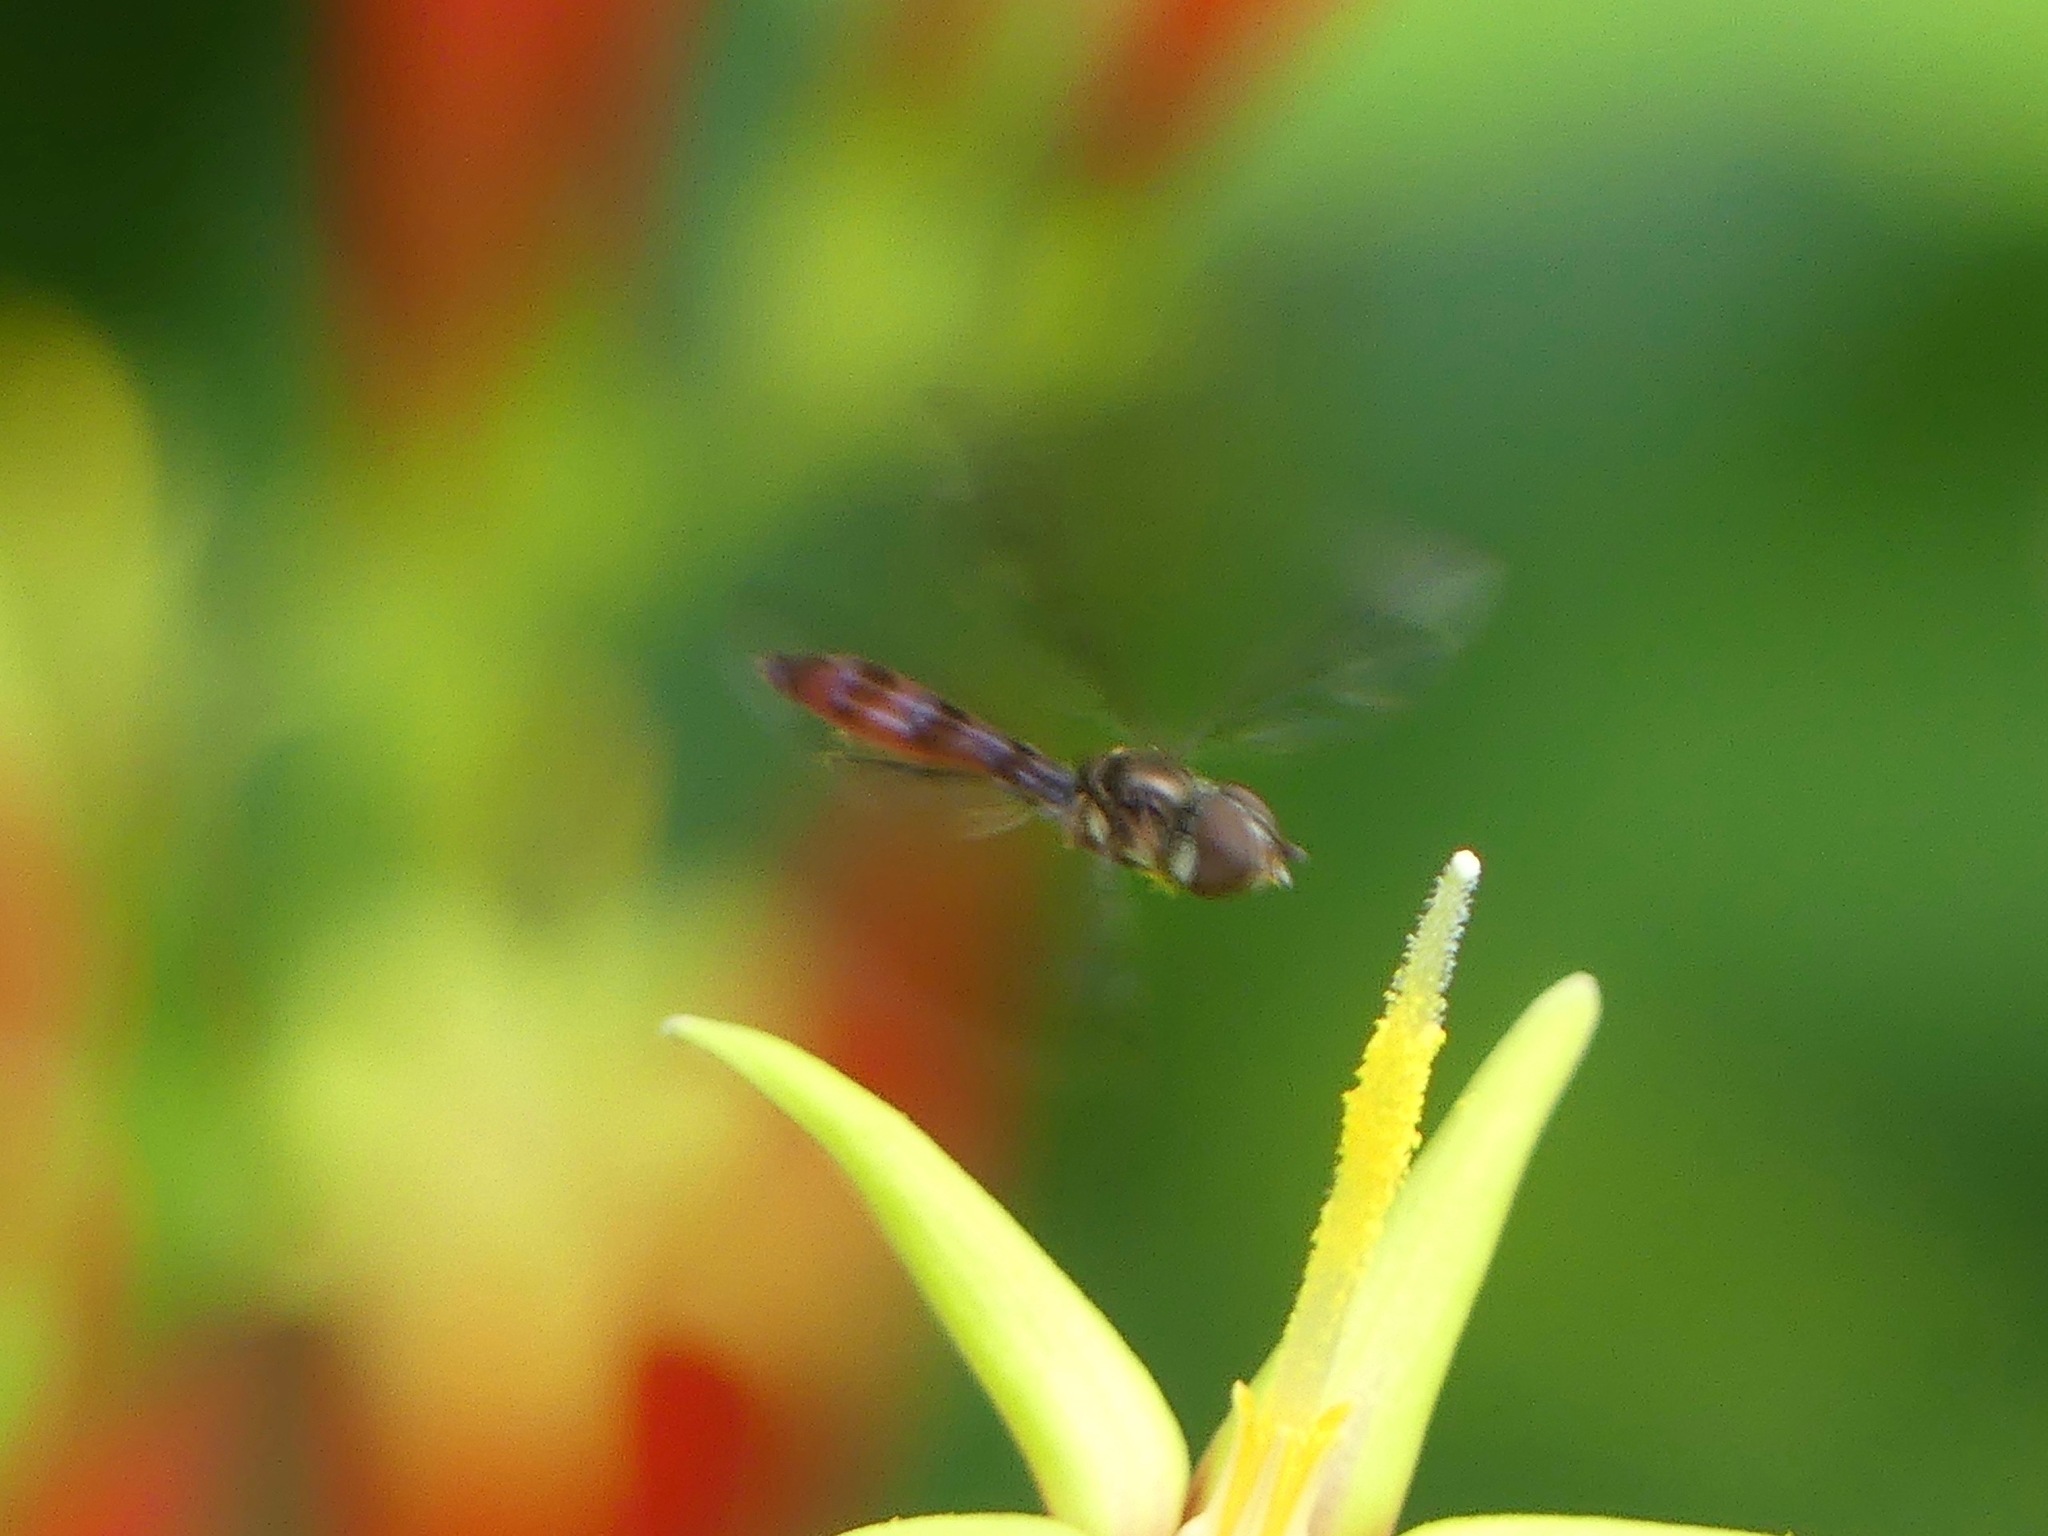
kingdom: Animalia
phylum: Arthropoda
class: Insecta
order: Diptera
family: Syrphidae
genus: Ocyptamus
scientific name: Ocyptamus fuscipennis
